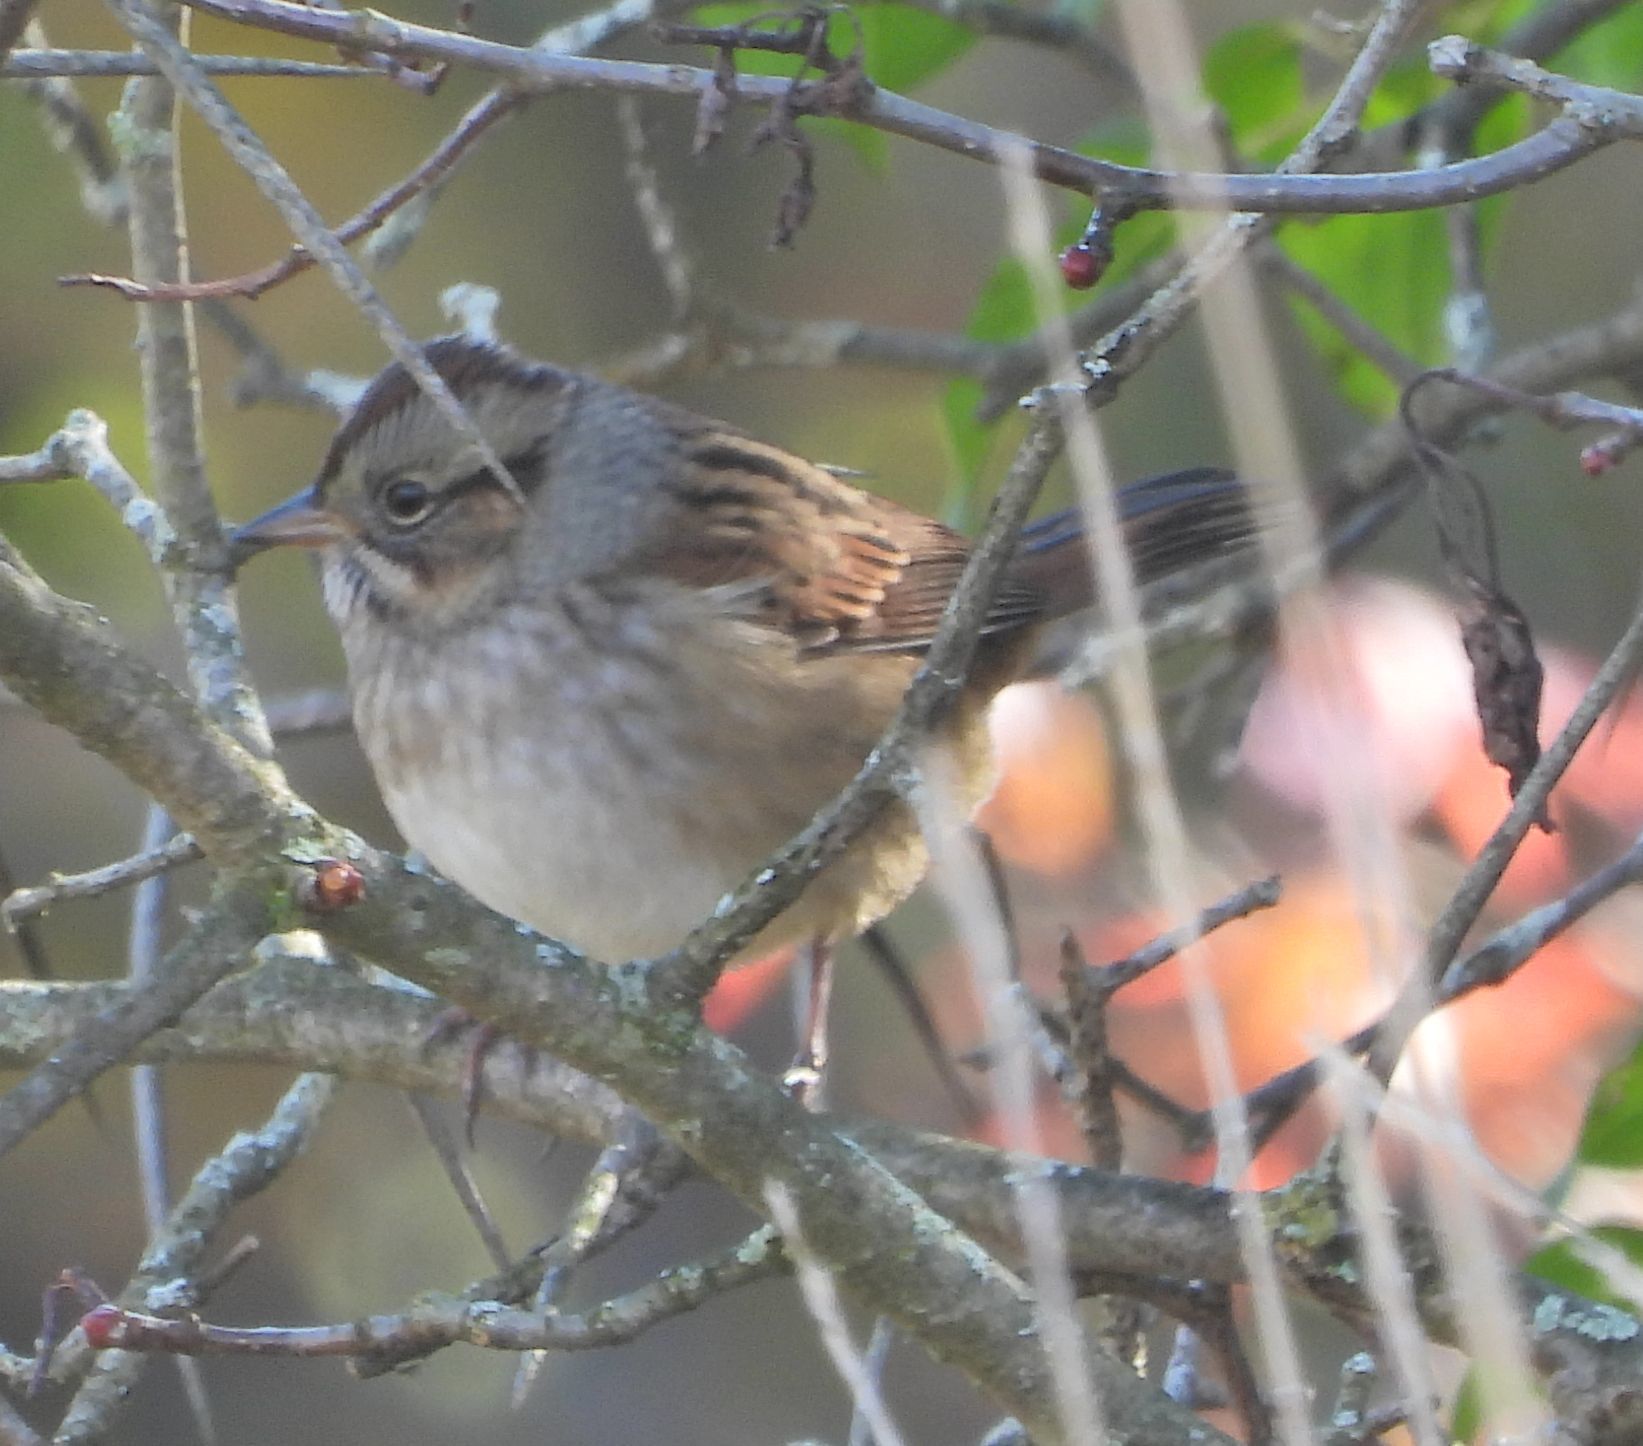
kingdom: Animalia
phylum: Chordata
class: Aves
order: Passeriformes
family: Passerellidae
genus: Melospiza
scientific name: Melospiza georgiana
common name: Swamp sparrow
